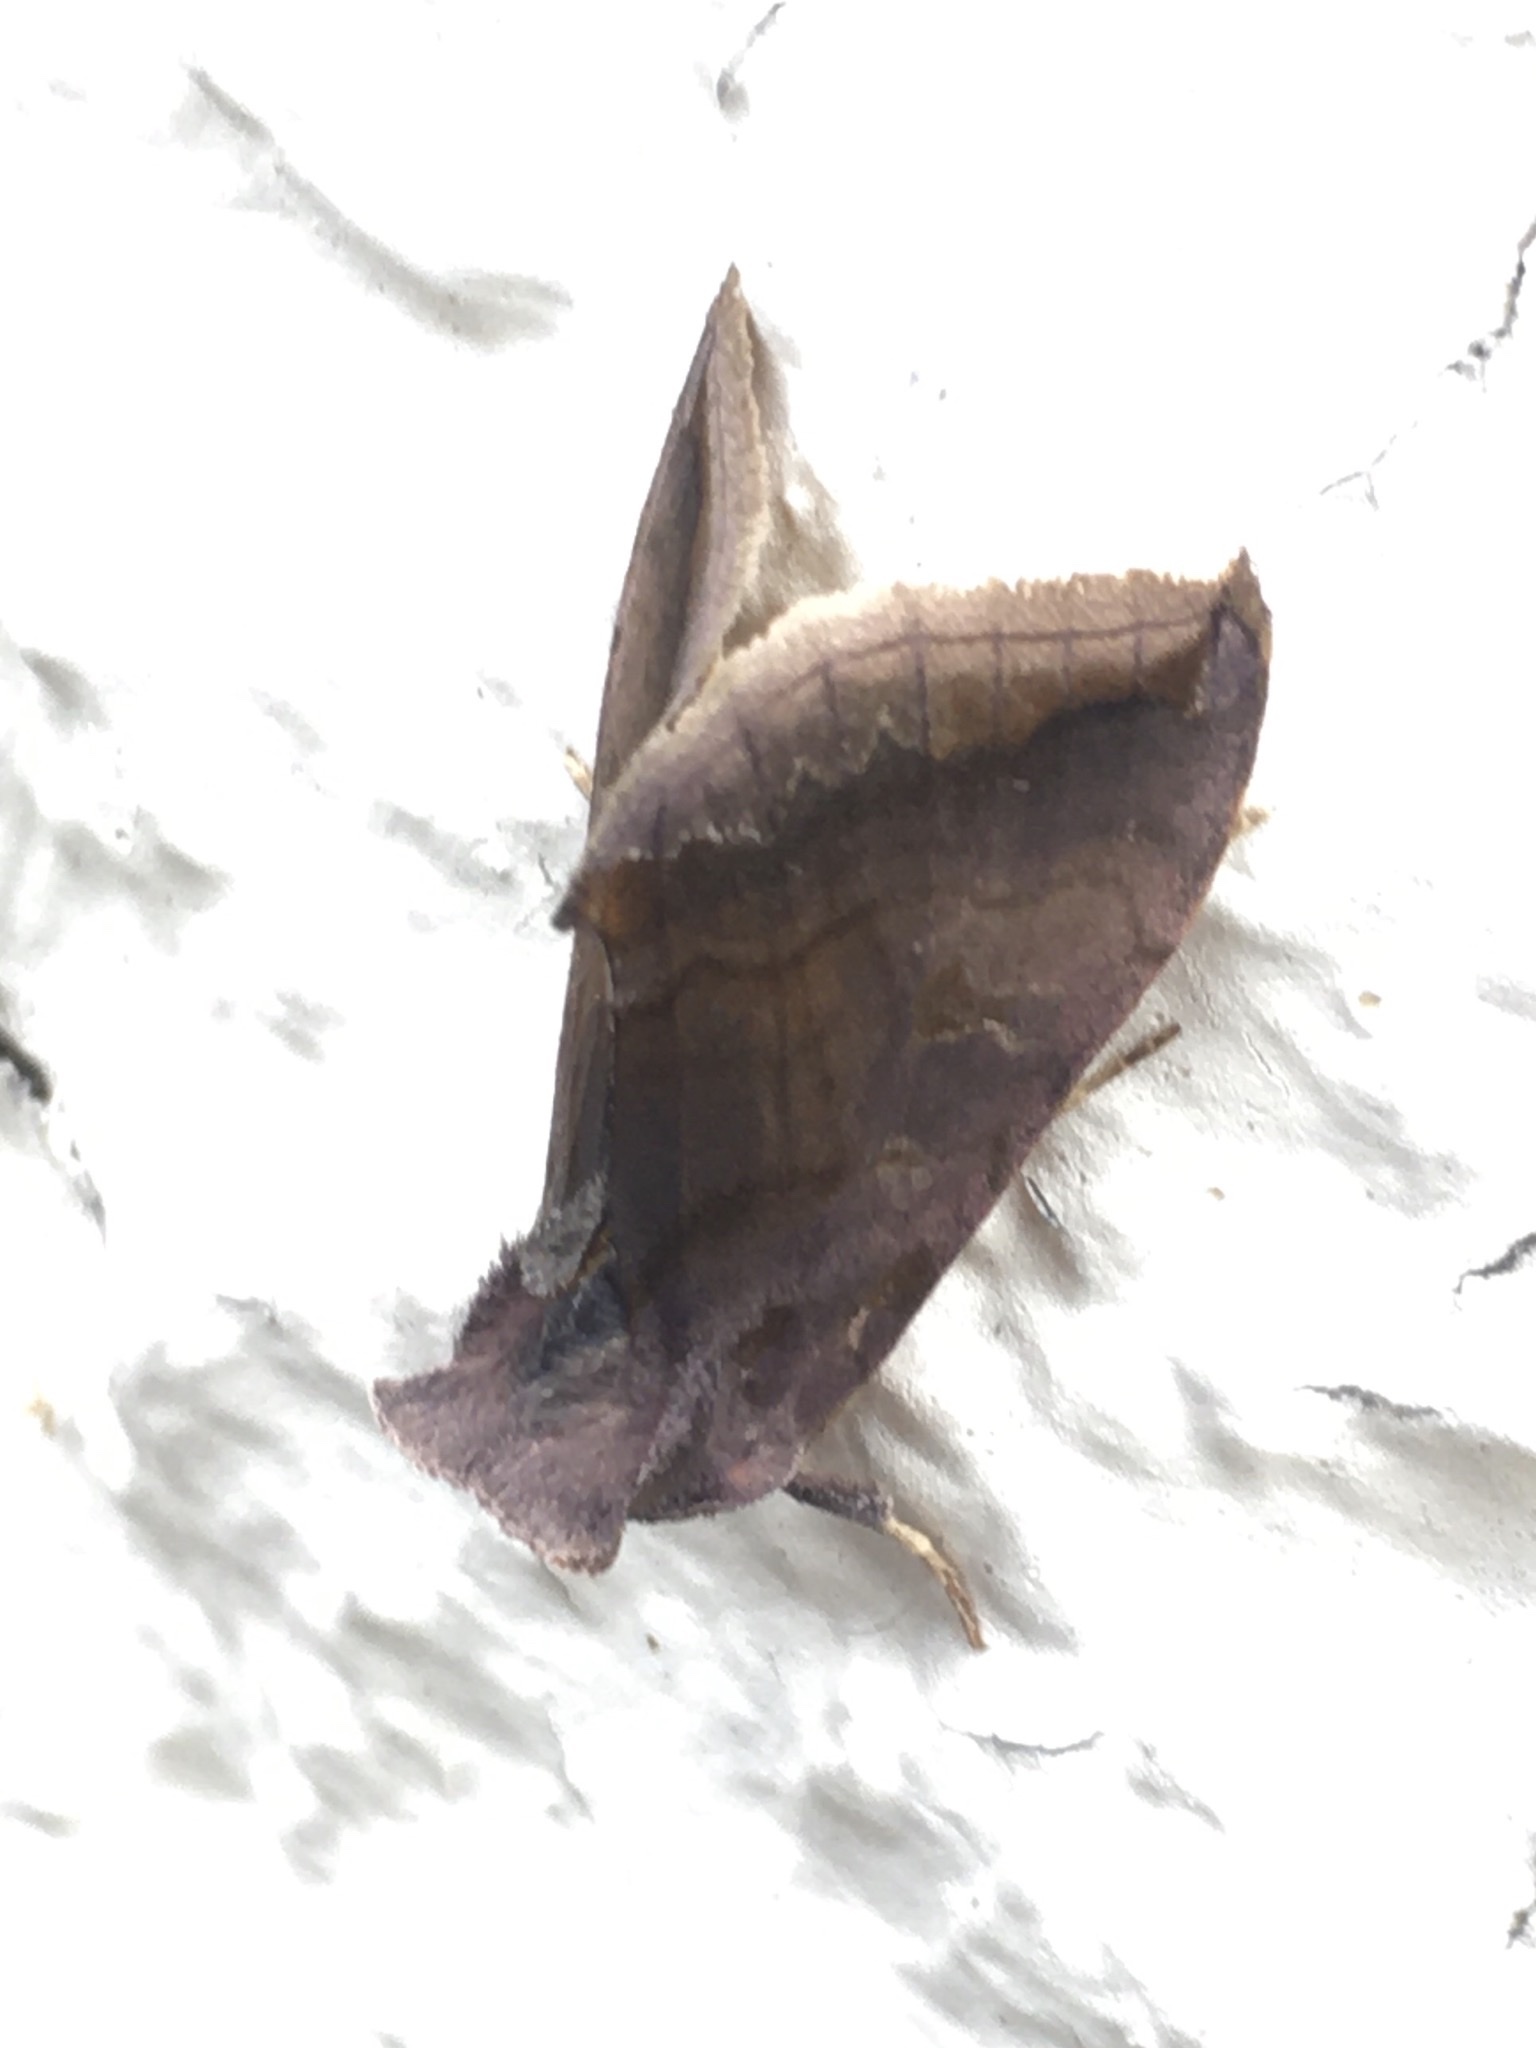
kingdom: Animalia
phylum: Arthropoda
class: Insecta
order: Lepidoptera
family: Noctuidae
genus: Allagrapha
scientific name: Allagrapha aerea
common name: Unspotted looper moth
